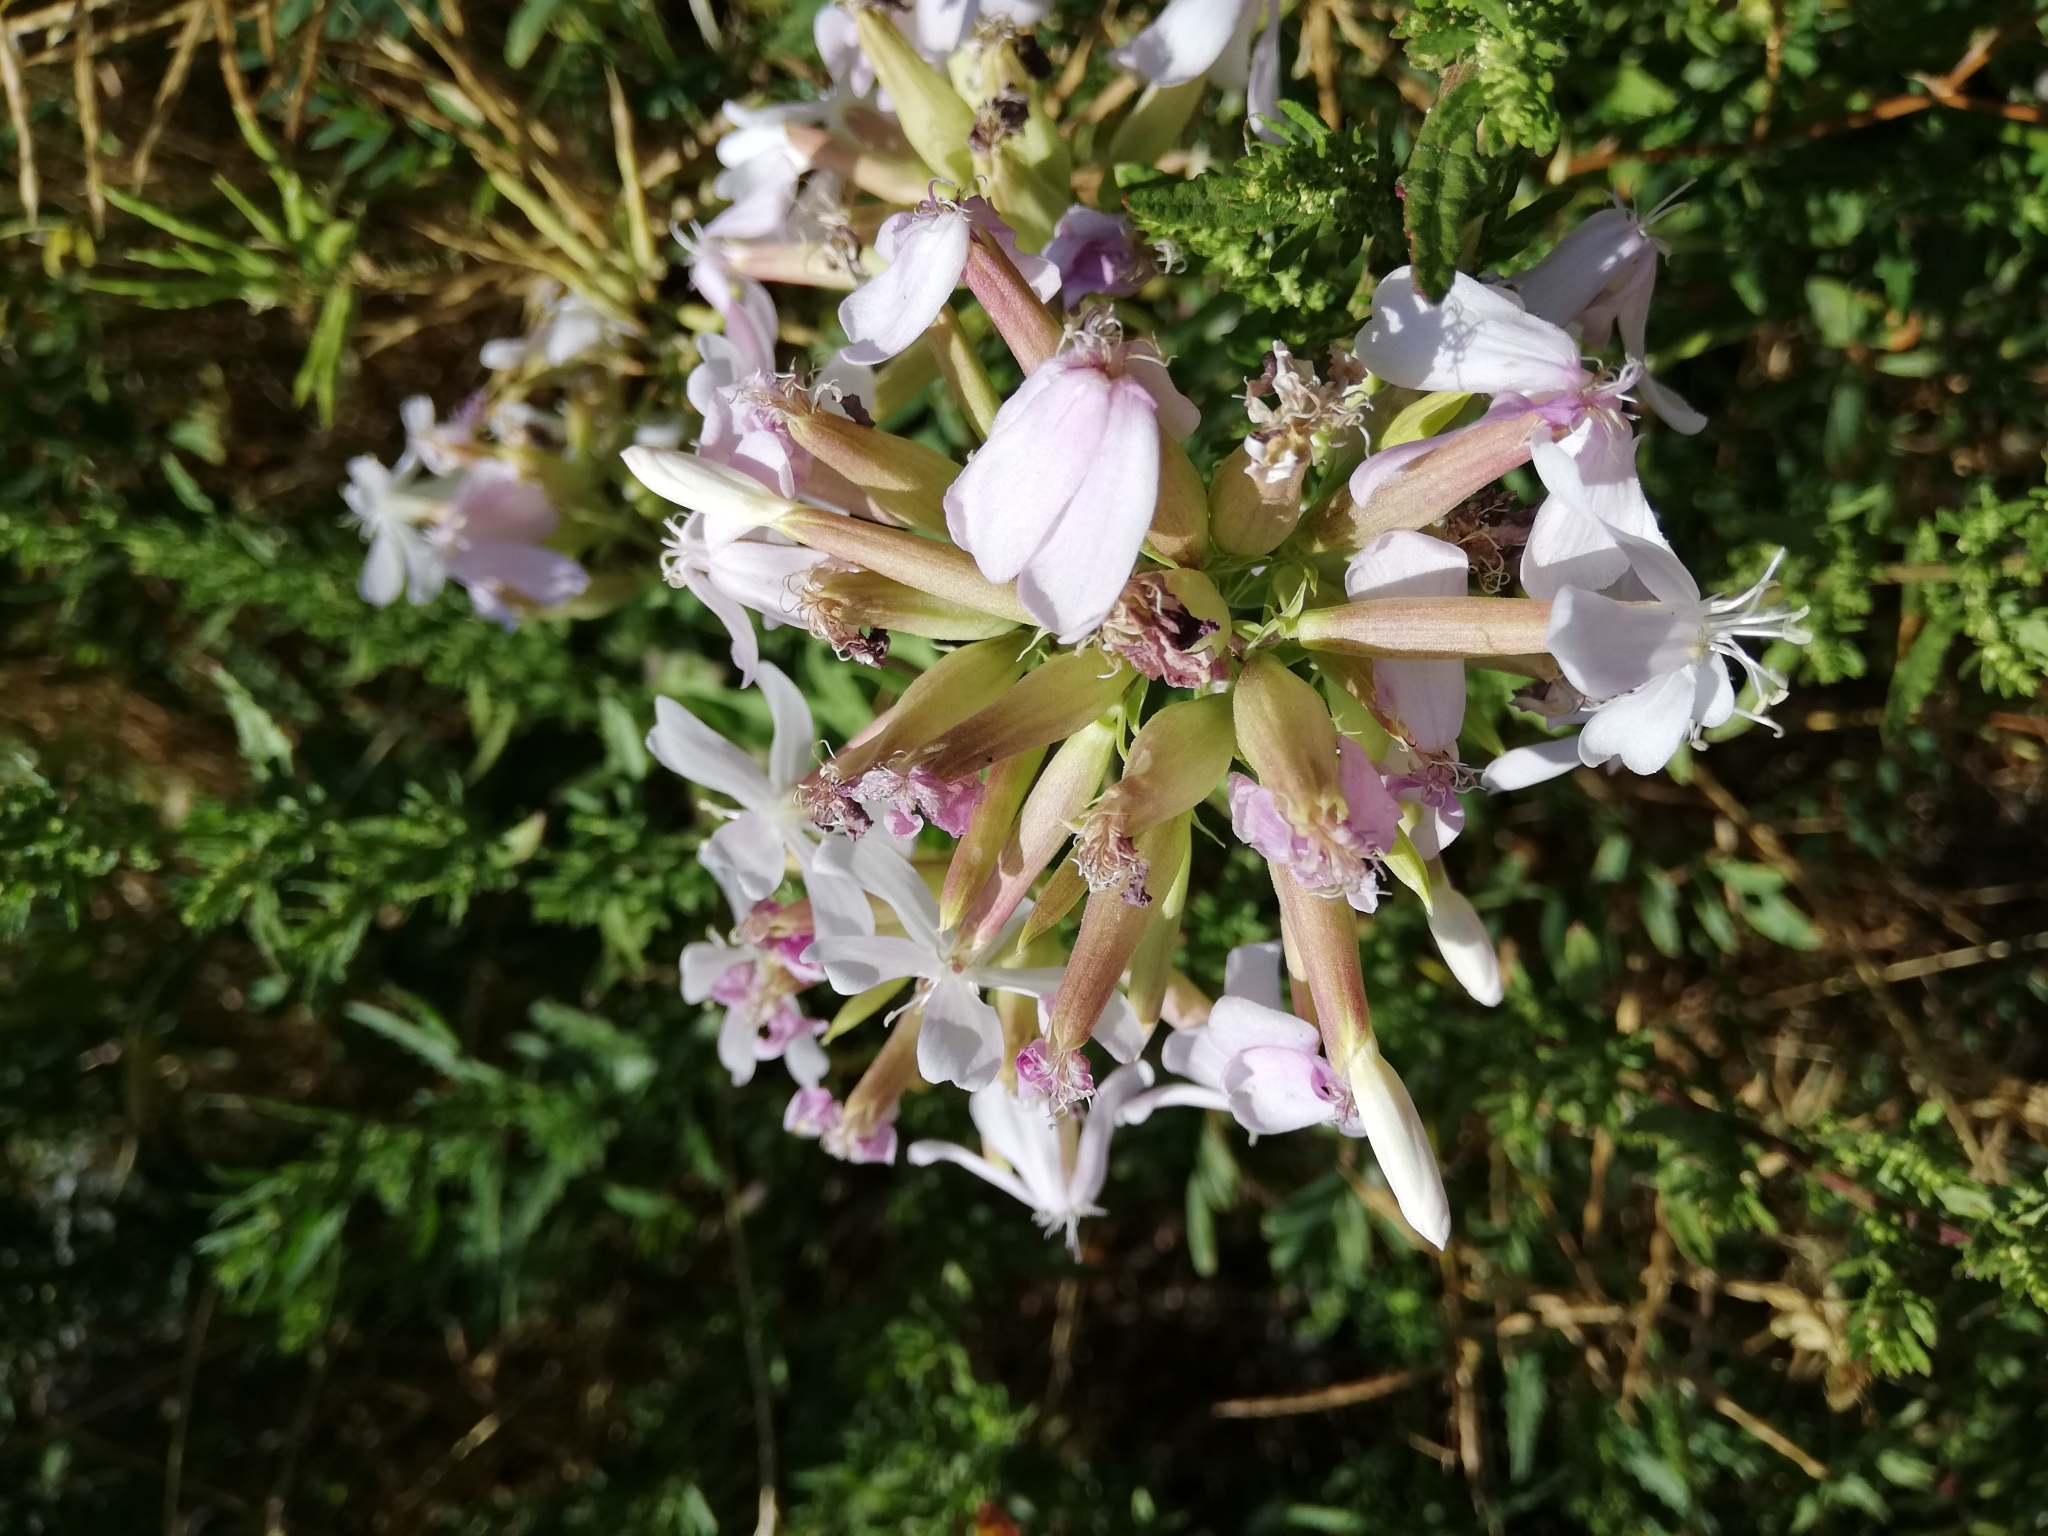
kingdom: Plantae
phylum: Tracheophyta
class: Magnoliopsida
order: Caryophyllales
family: Caryophyllaceae
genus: Saponaria
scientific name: Saponaria officinalis
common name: Soapwort
